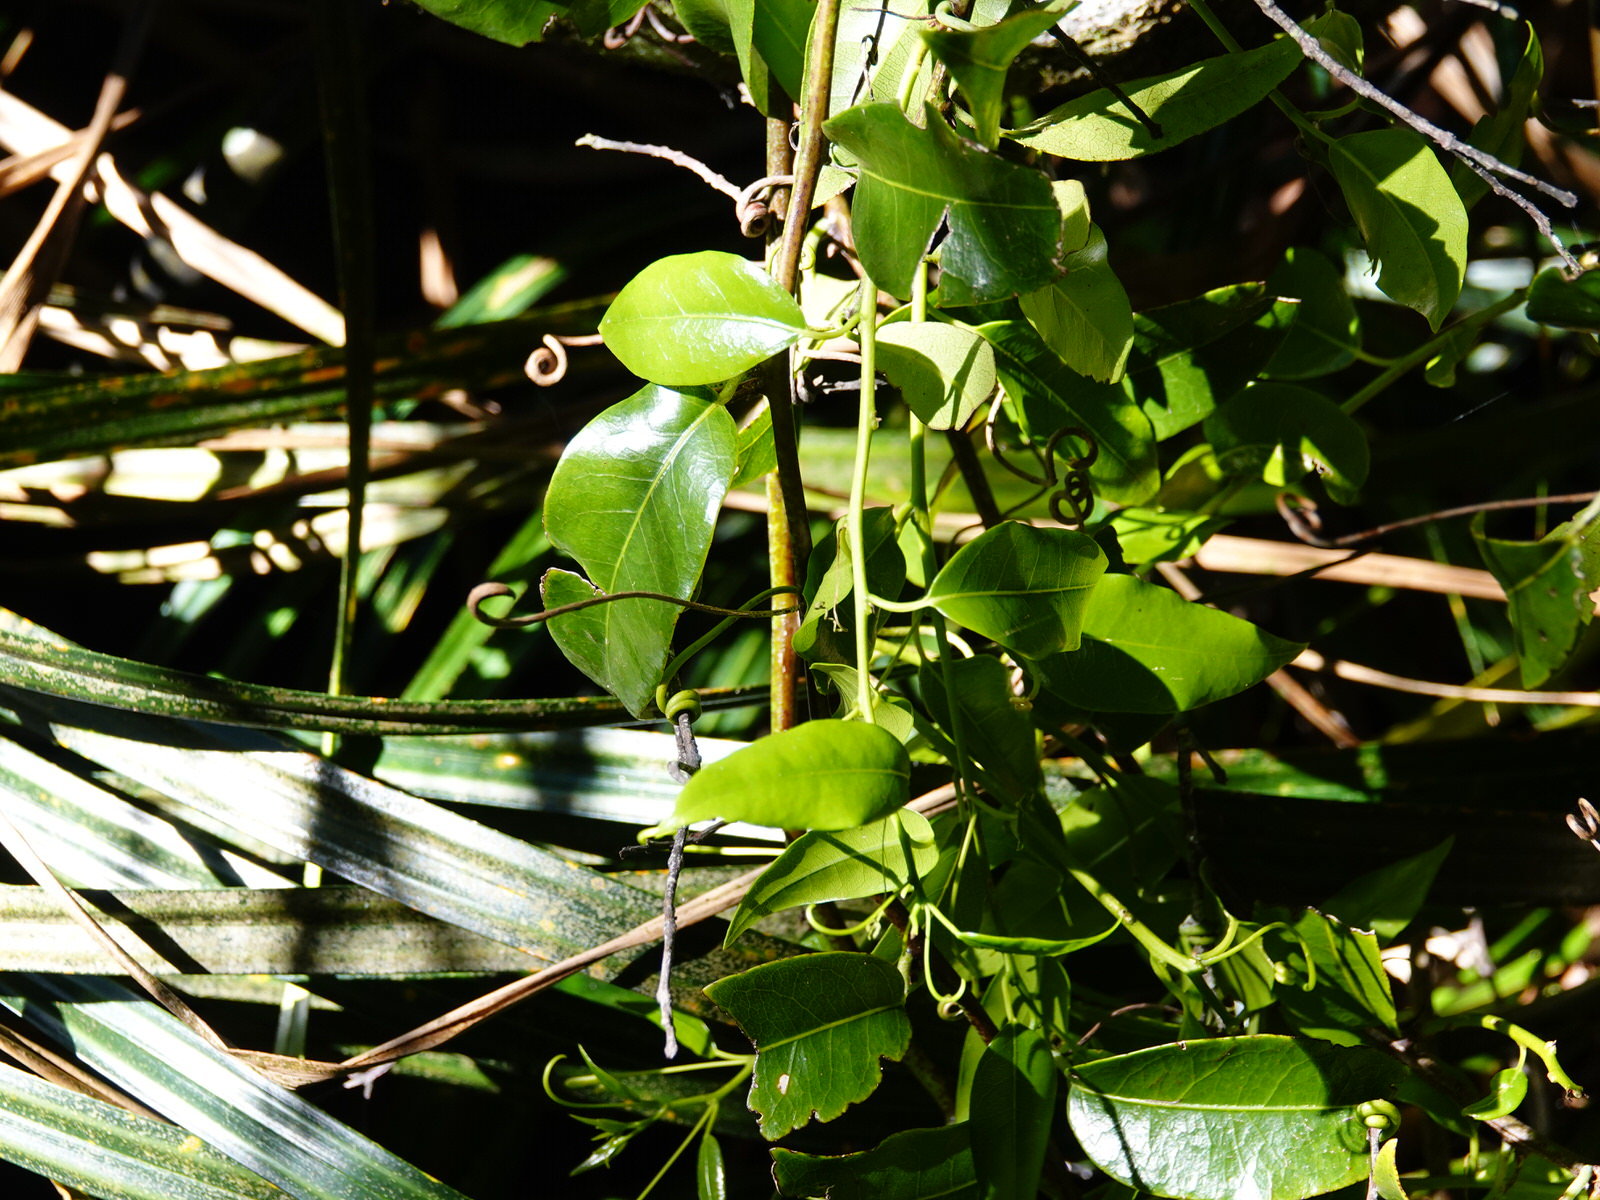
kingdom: Plantae
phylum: Tracheophyta
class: Magnoliopsida
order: Malpighiales
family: Passifloraceae
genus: Passiflora
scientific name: Passiflora tetrandra
